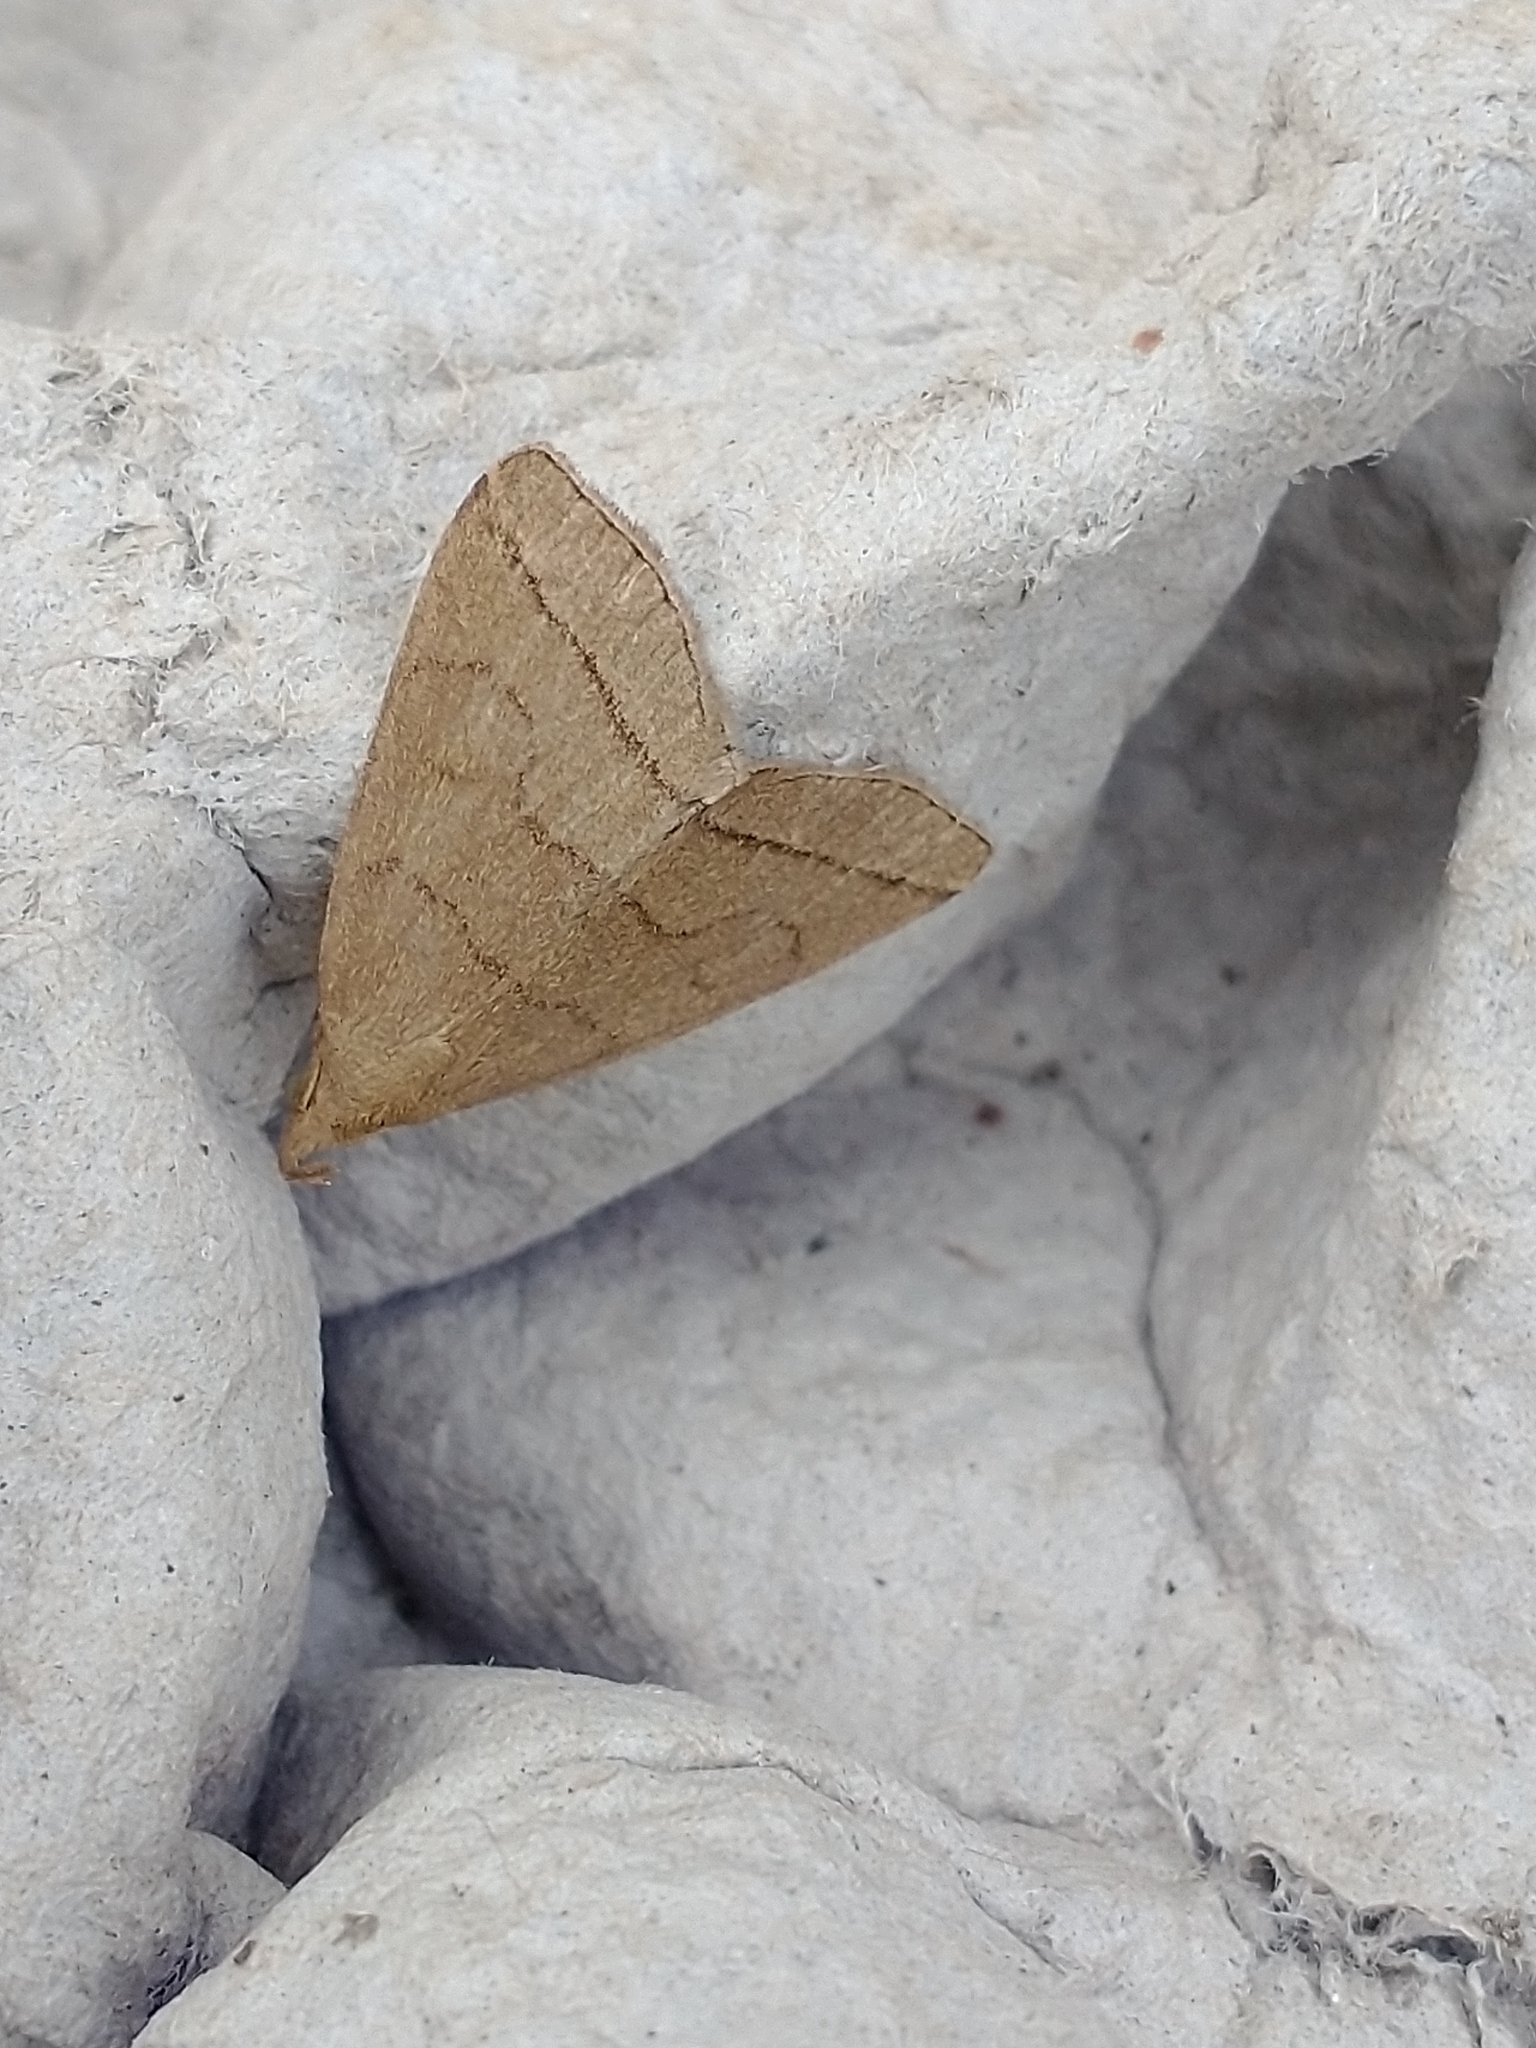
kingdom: Animalia
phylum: Arthropoda
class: Insecta
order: Lepidoptera
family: Erebidae
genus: Herminia
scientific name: Herminia tarsipennalis
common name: Fan-foot
